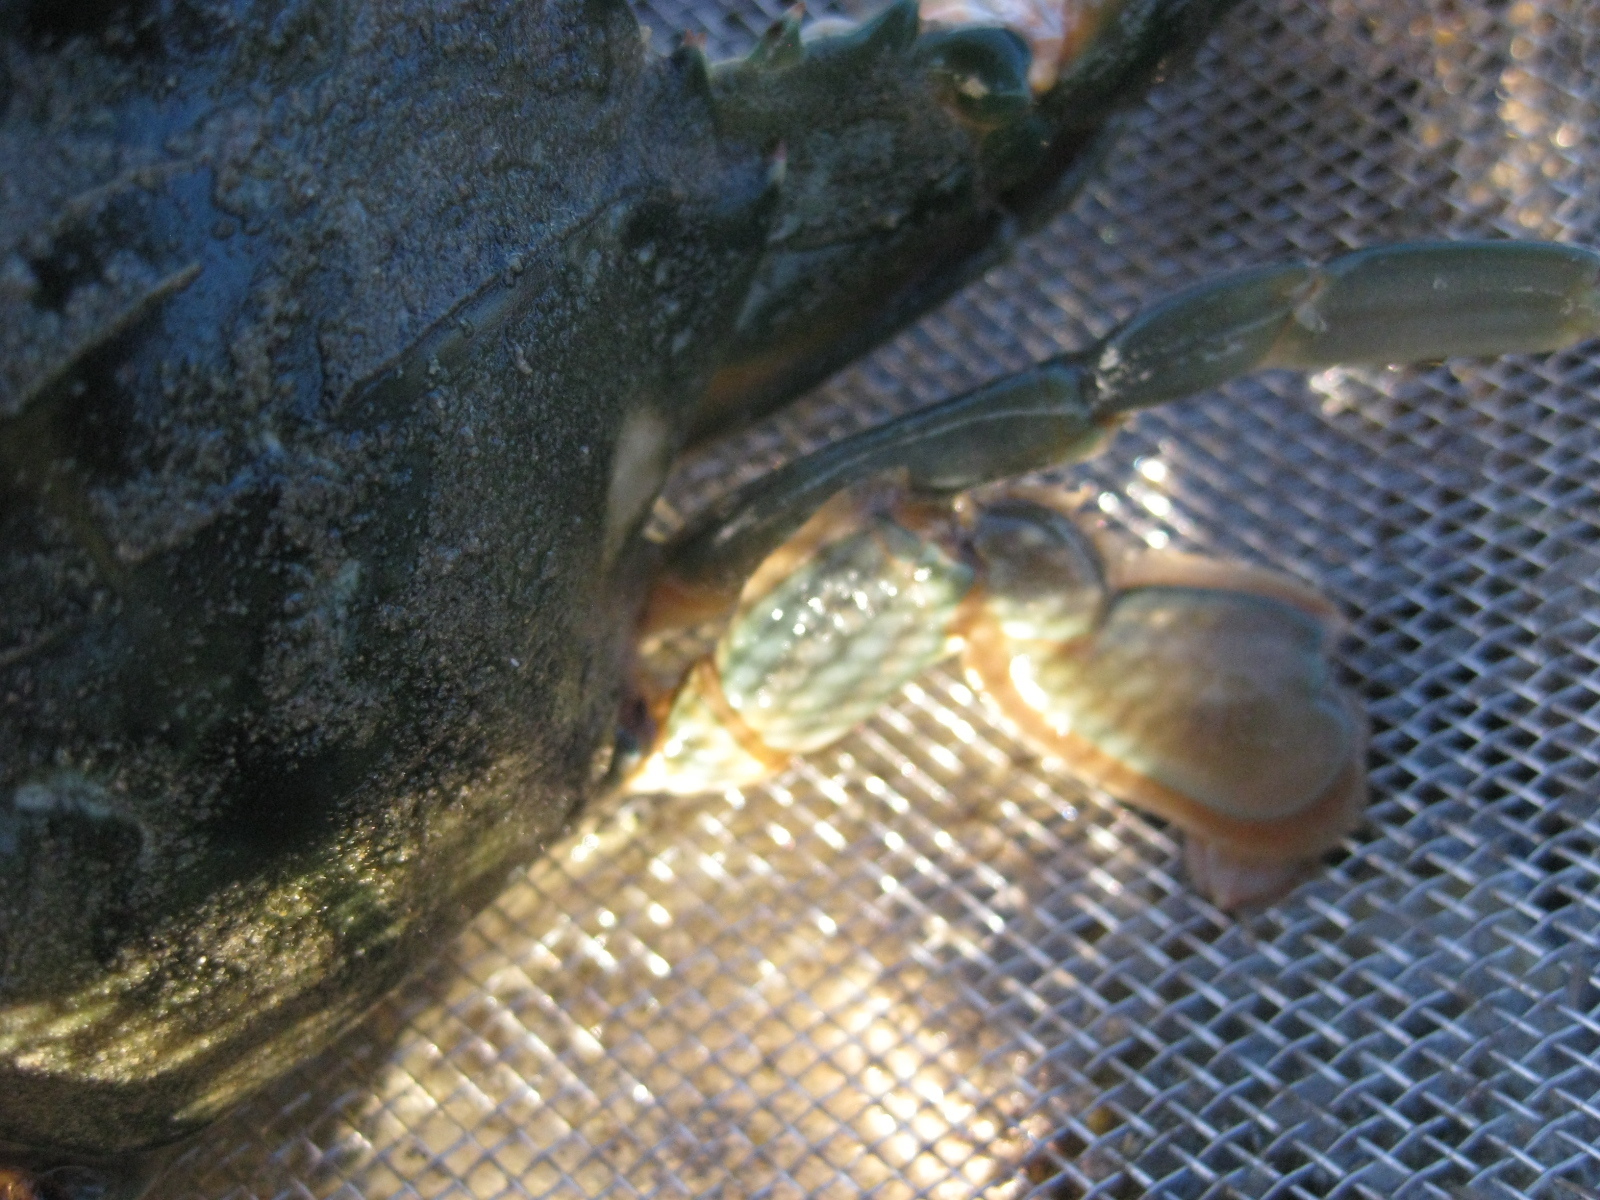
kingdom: Animalia
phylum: Arthropoda
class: Malacostraca
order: Decapoda
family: Portunidae
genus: Charybdis
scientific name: Charybdis japonica
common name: Asian paddle crab
